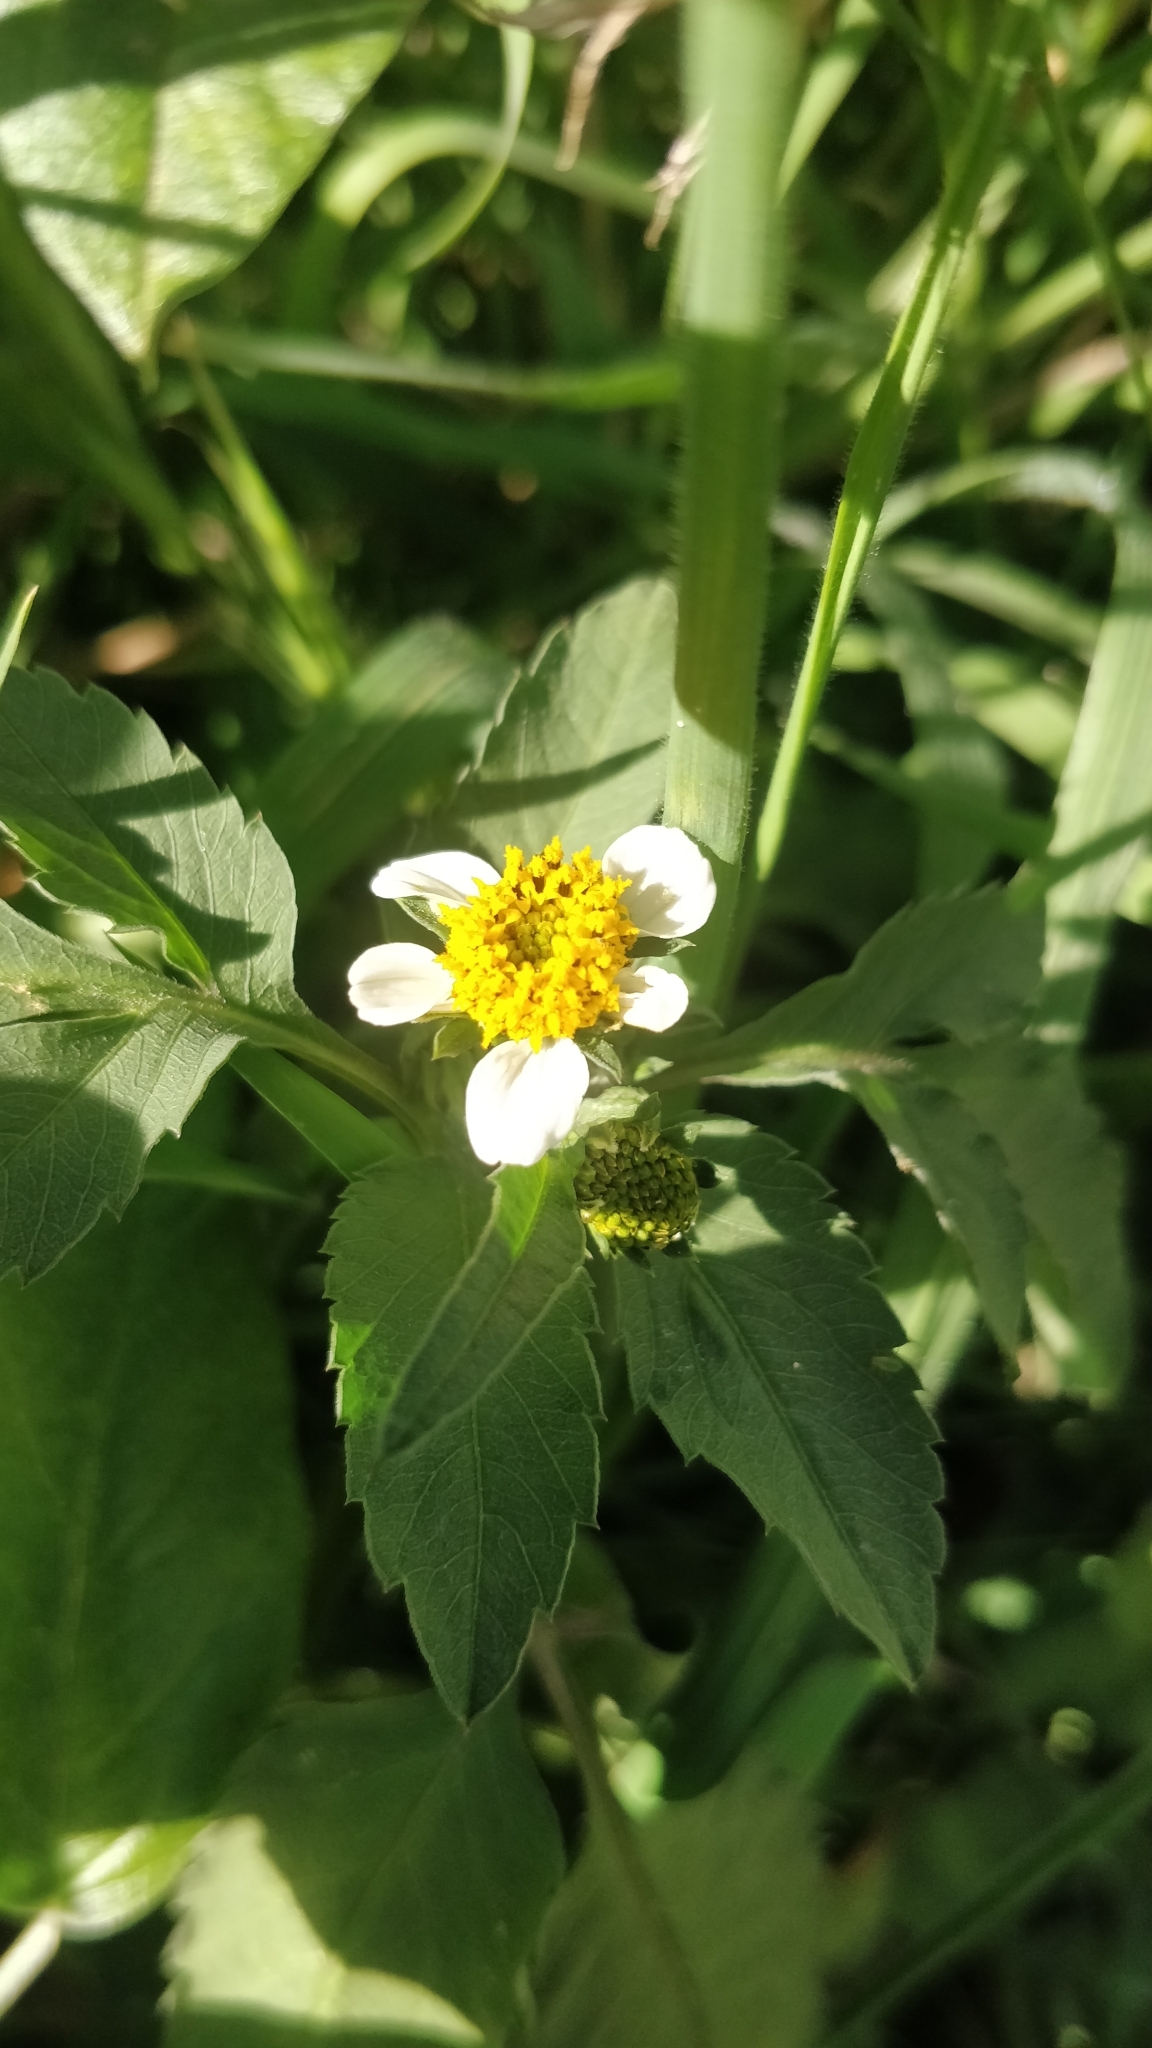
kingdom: Plantae
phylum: Tracheophyta
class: Magnoliopsida
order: Asterales
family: Asteraceae
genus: Bidens
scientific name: Bidens pilosa
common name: Black-jack
